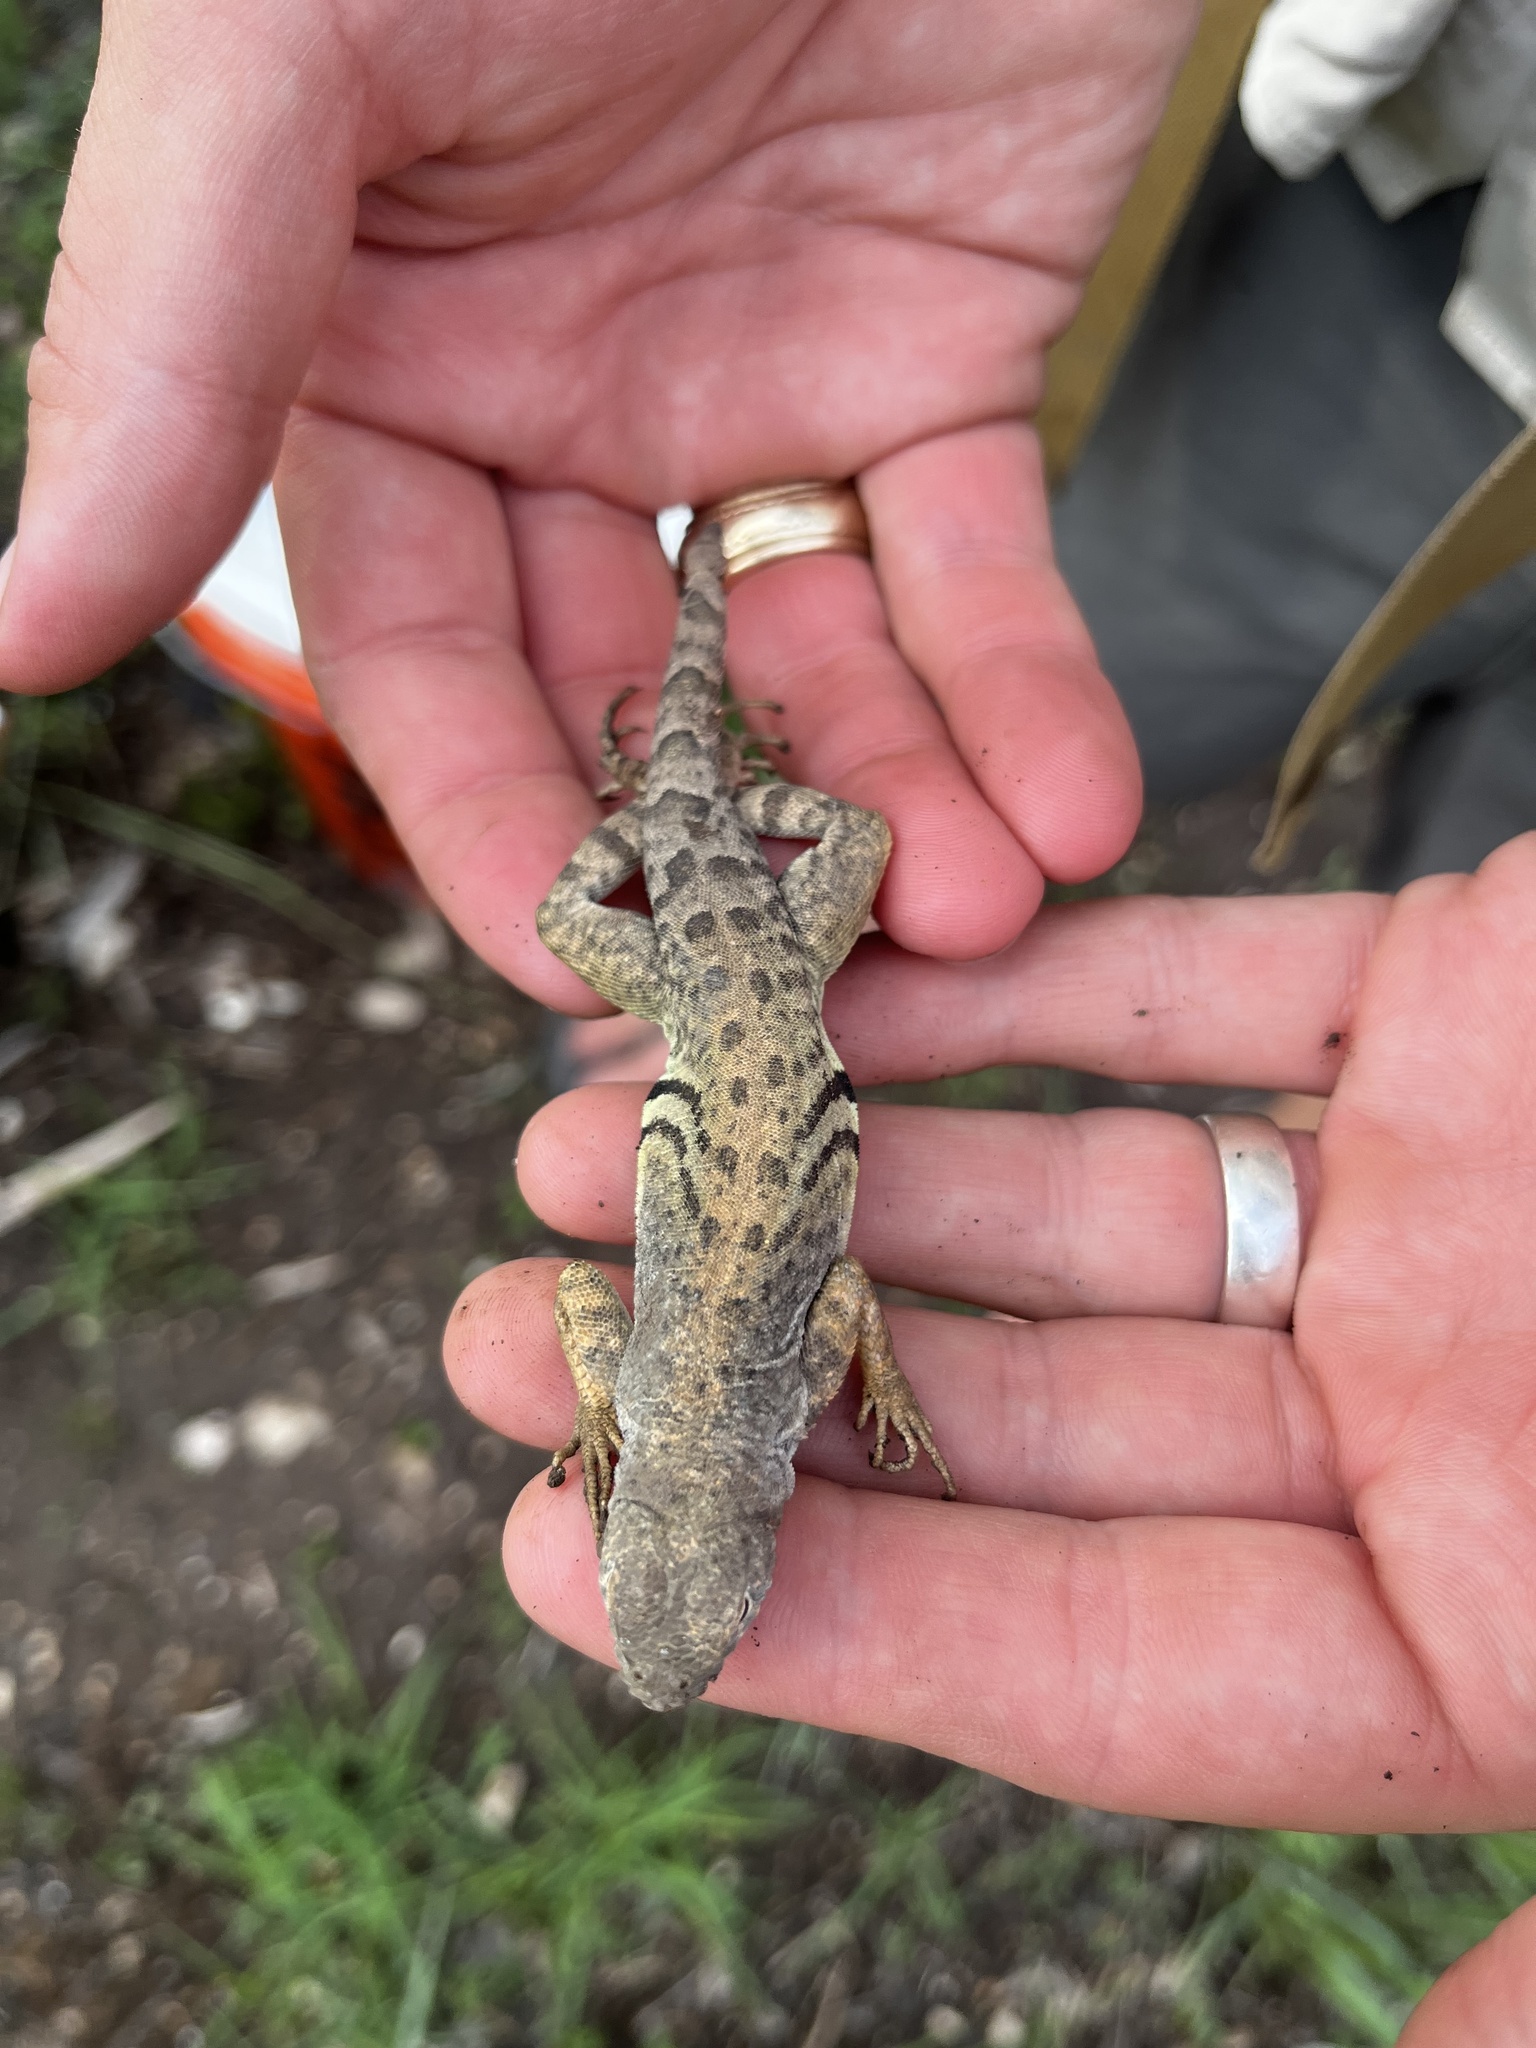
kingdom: Animalia
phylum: Chordata
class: Squamata
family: Phrynosomatidae
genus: Cophosaurus
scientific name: Cophosaurus texanus
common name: Greater earless lizard
